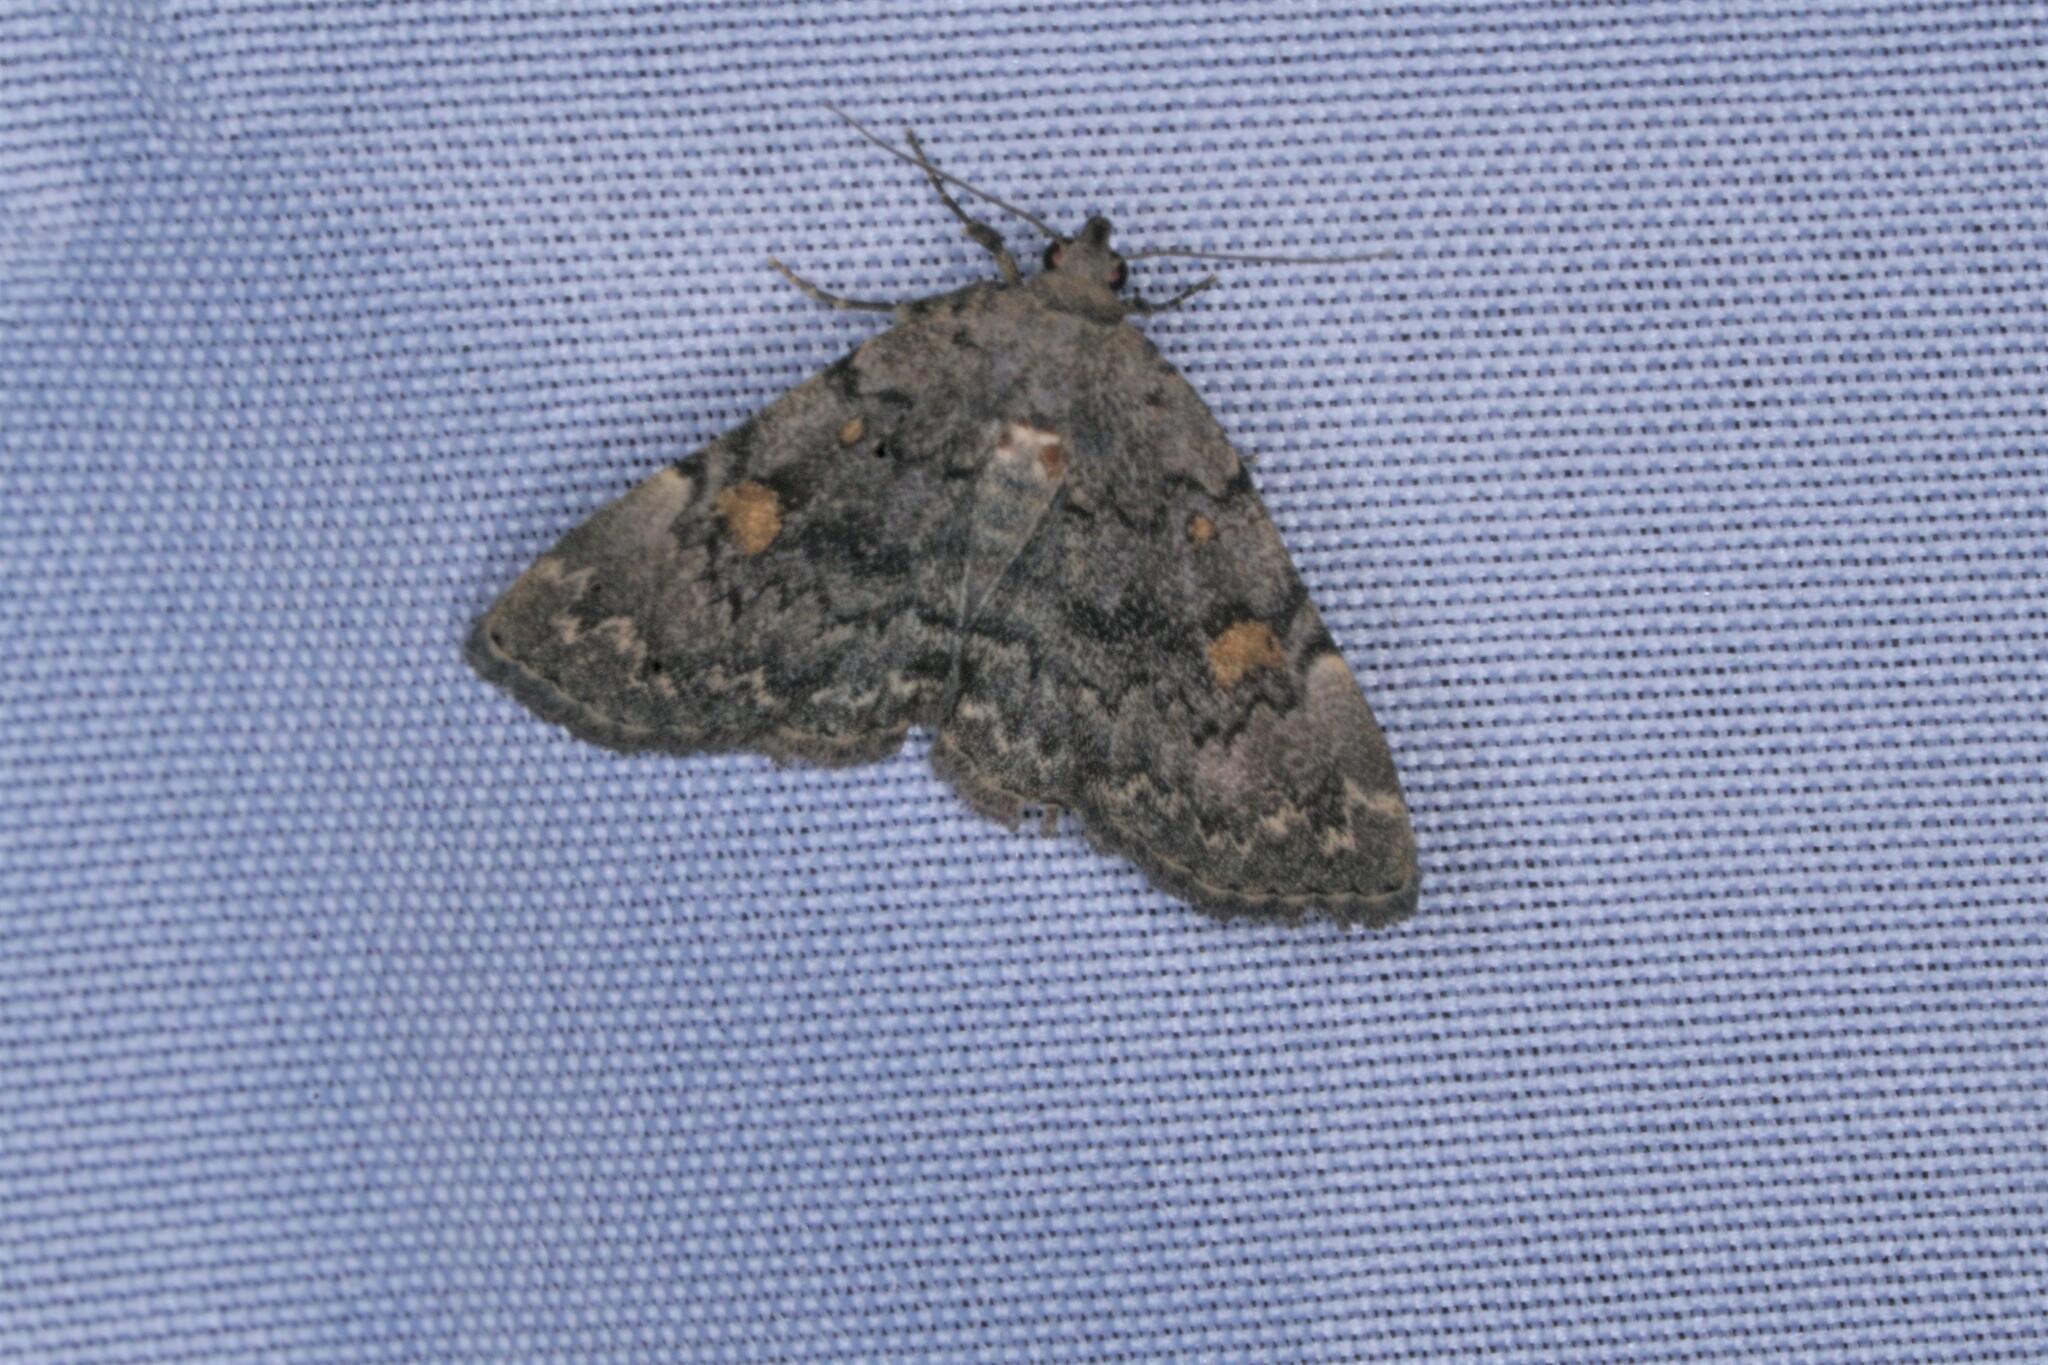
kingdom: Animalia
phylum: Arthropoda
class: Insecta
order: Lepidoptera
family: Erebidae
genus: Idia
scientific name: Idia aemula
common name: Common idia moth
